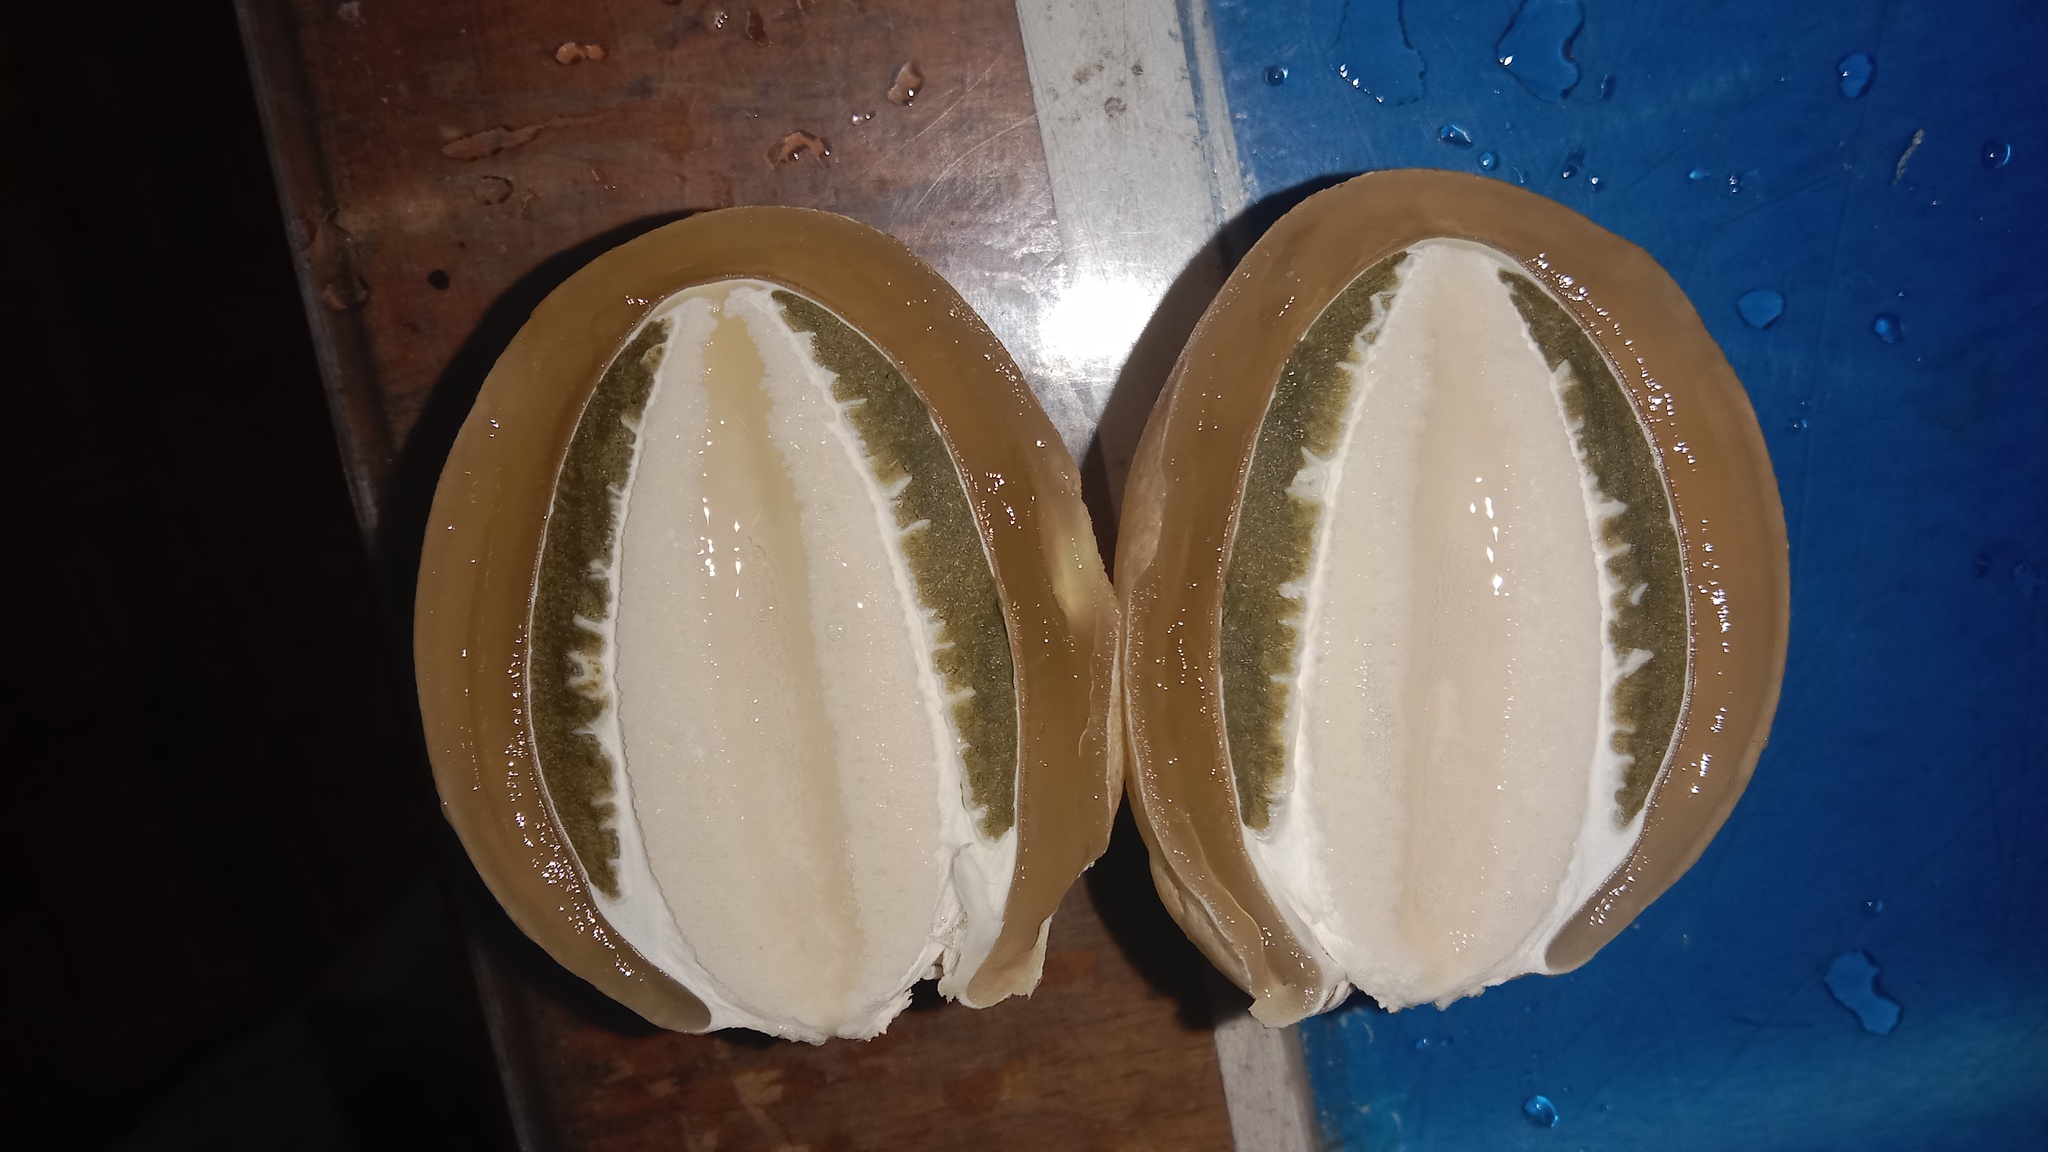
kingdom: Fungi
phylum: Basidiomycota
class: Agaricomycetes
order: Phallales
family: Phallaceae
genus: Phallus
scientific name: Phallus impudicus
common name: Common stinkhorn
